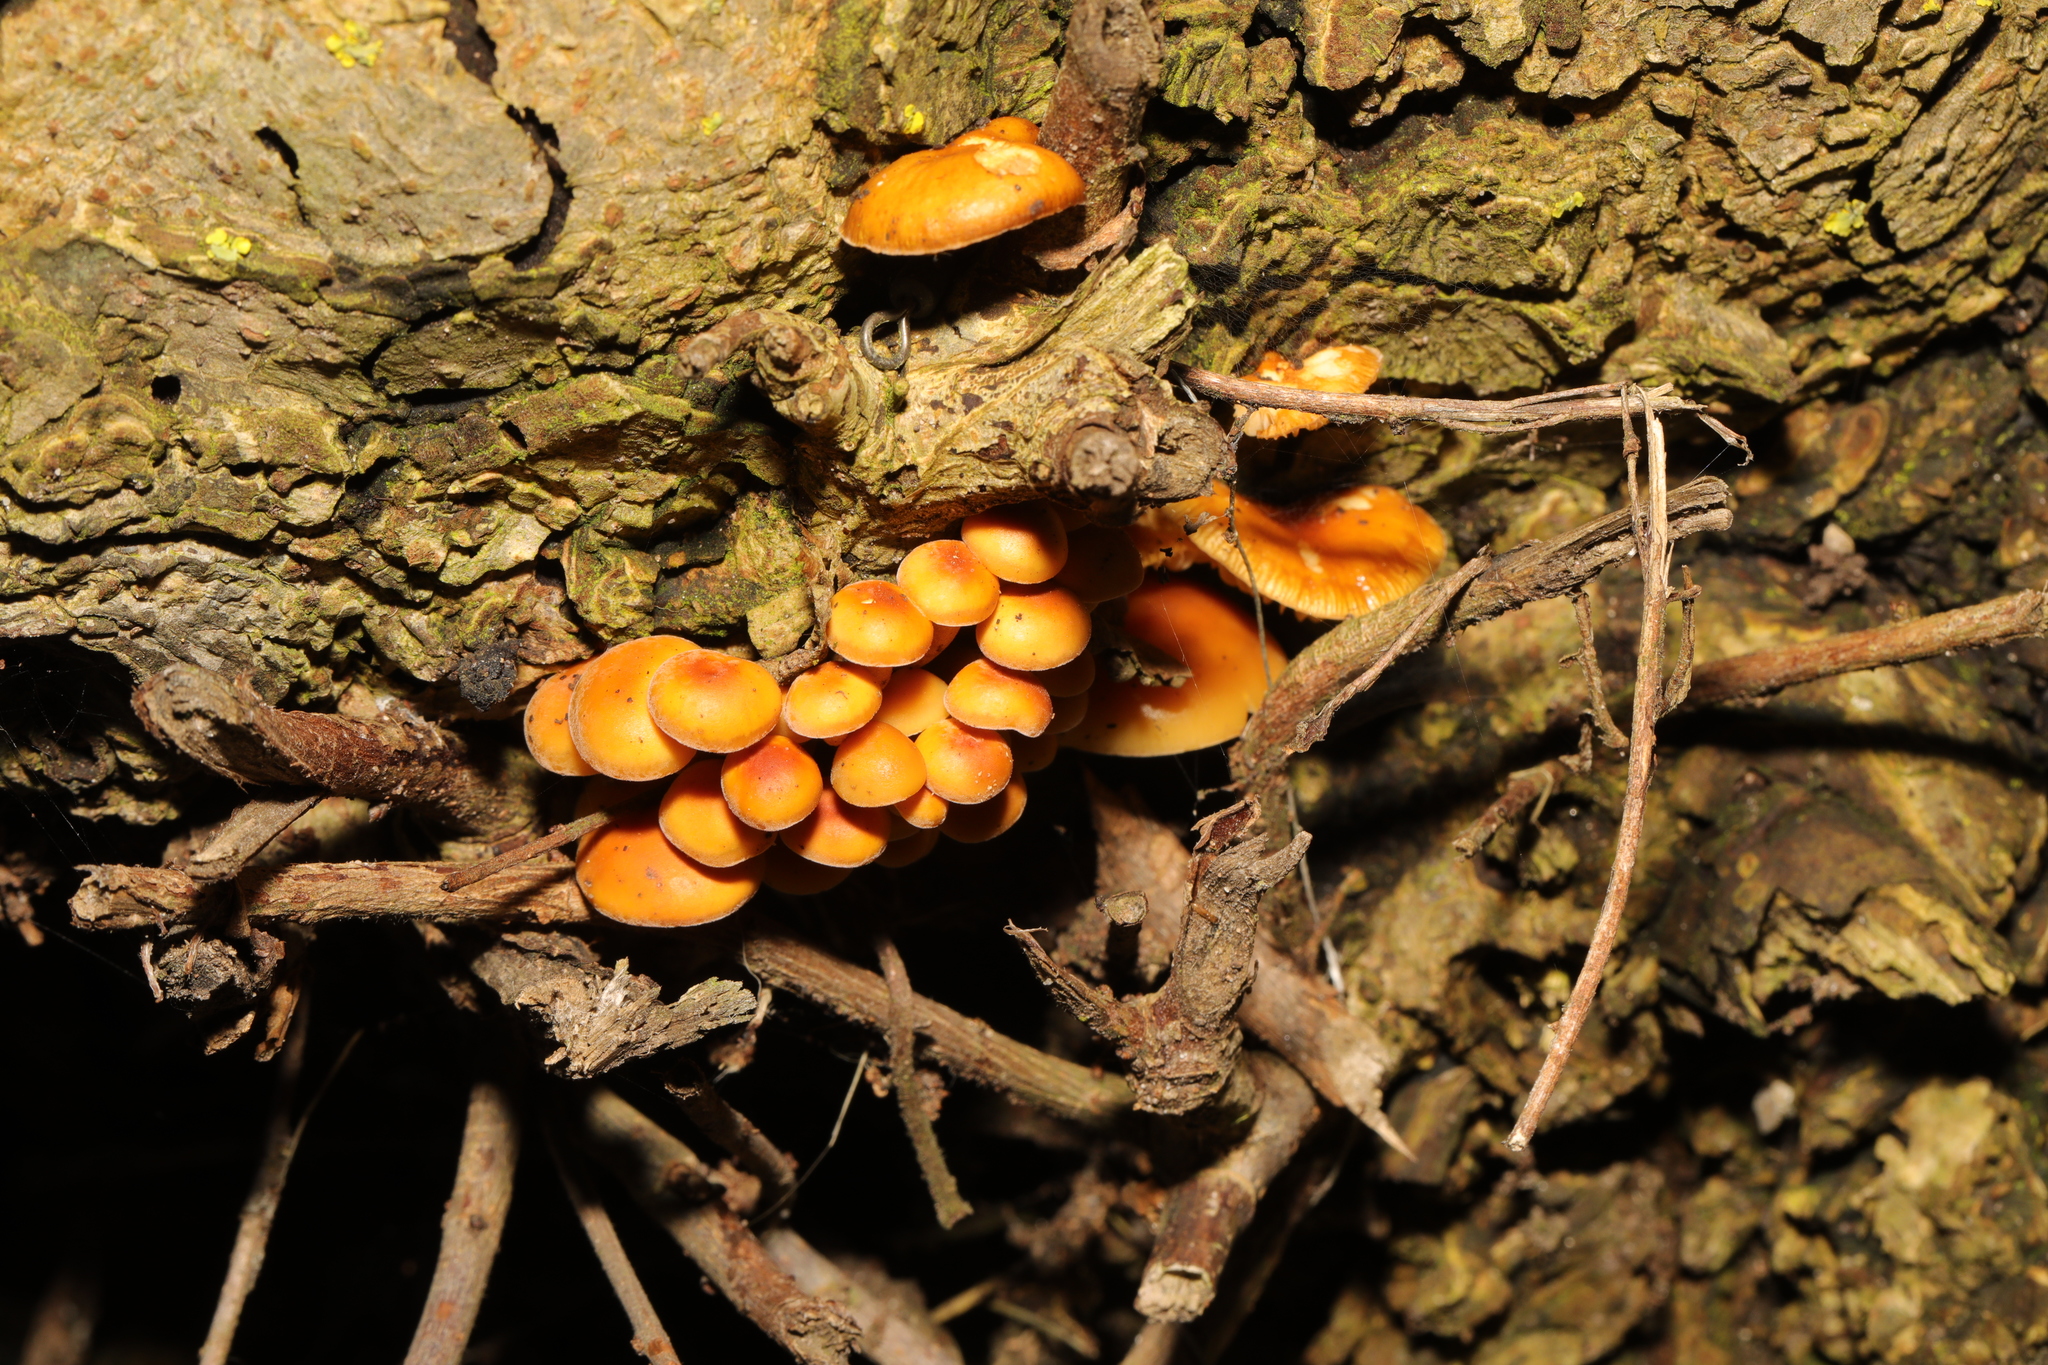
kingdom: Fungi
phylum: Basidiomycota
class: Agaricomycetes
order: Agaricales
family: Physalacriaceae
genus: Flammulina
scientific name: Flammulina
